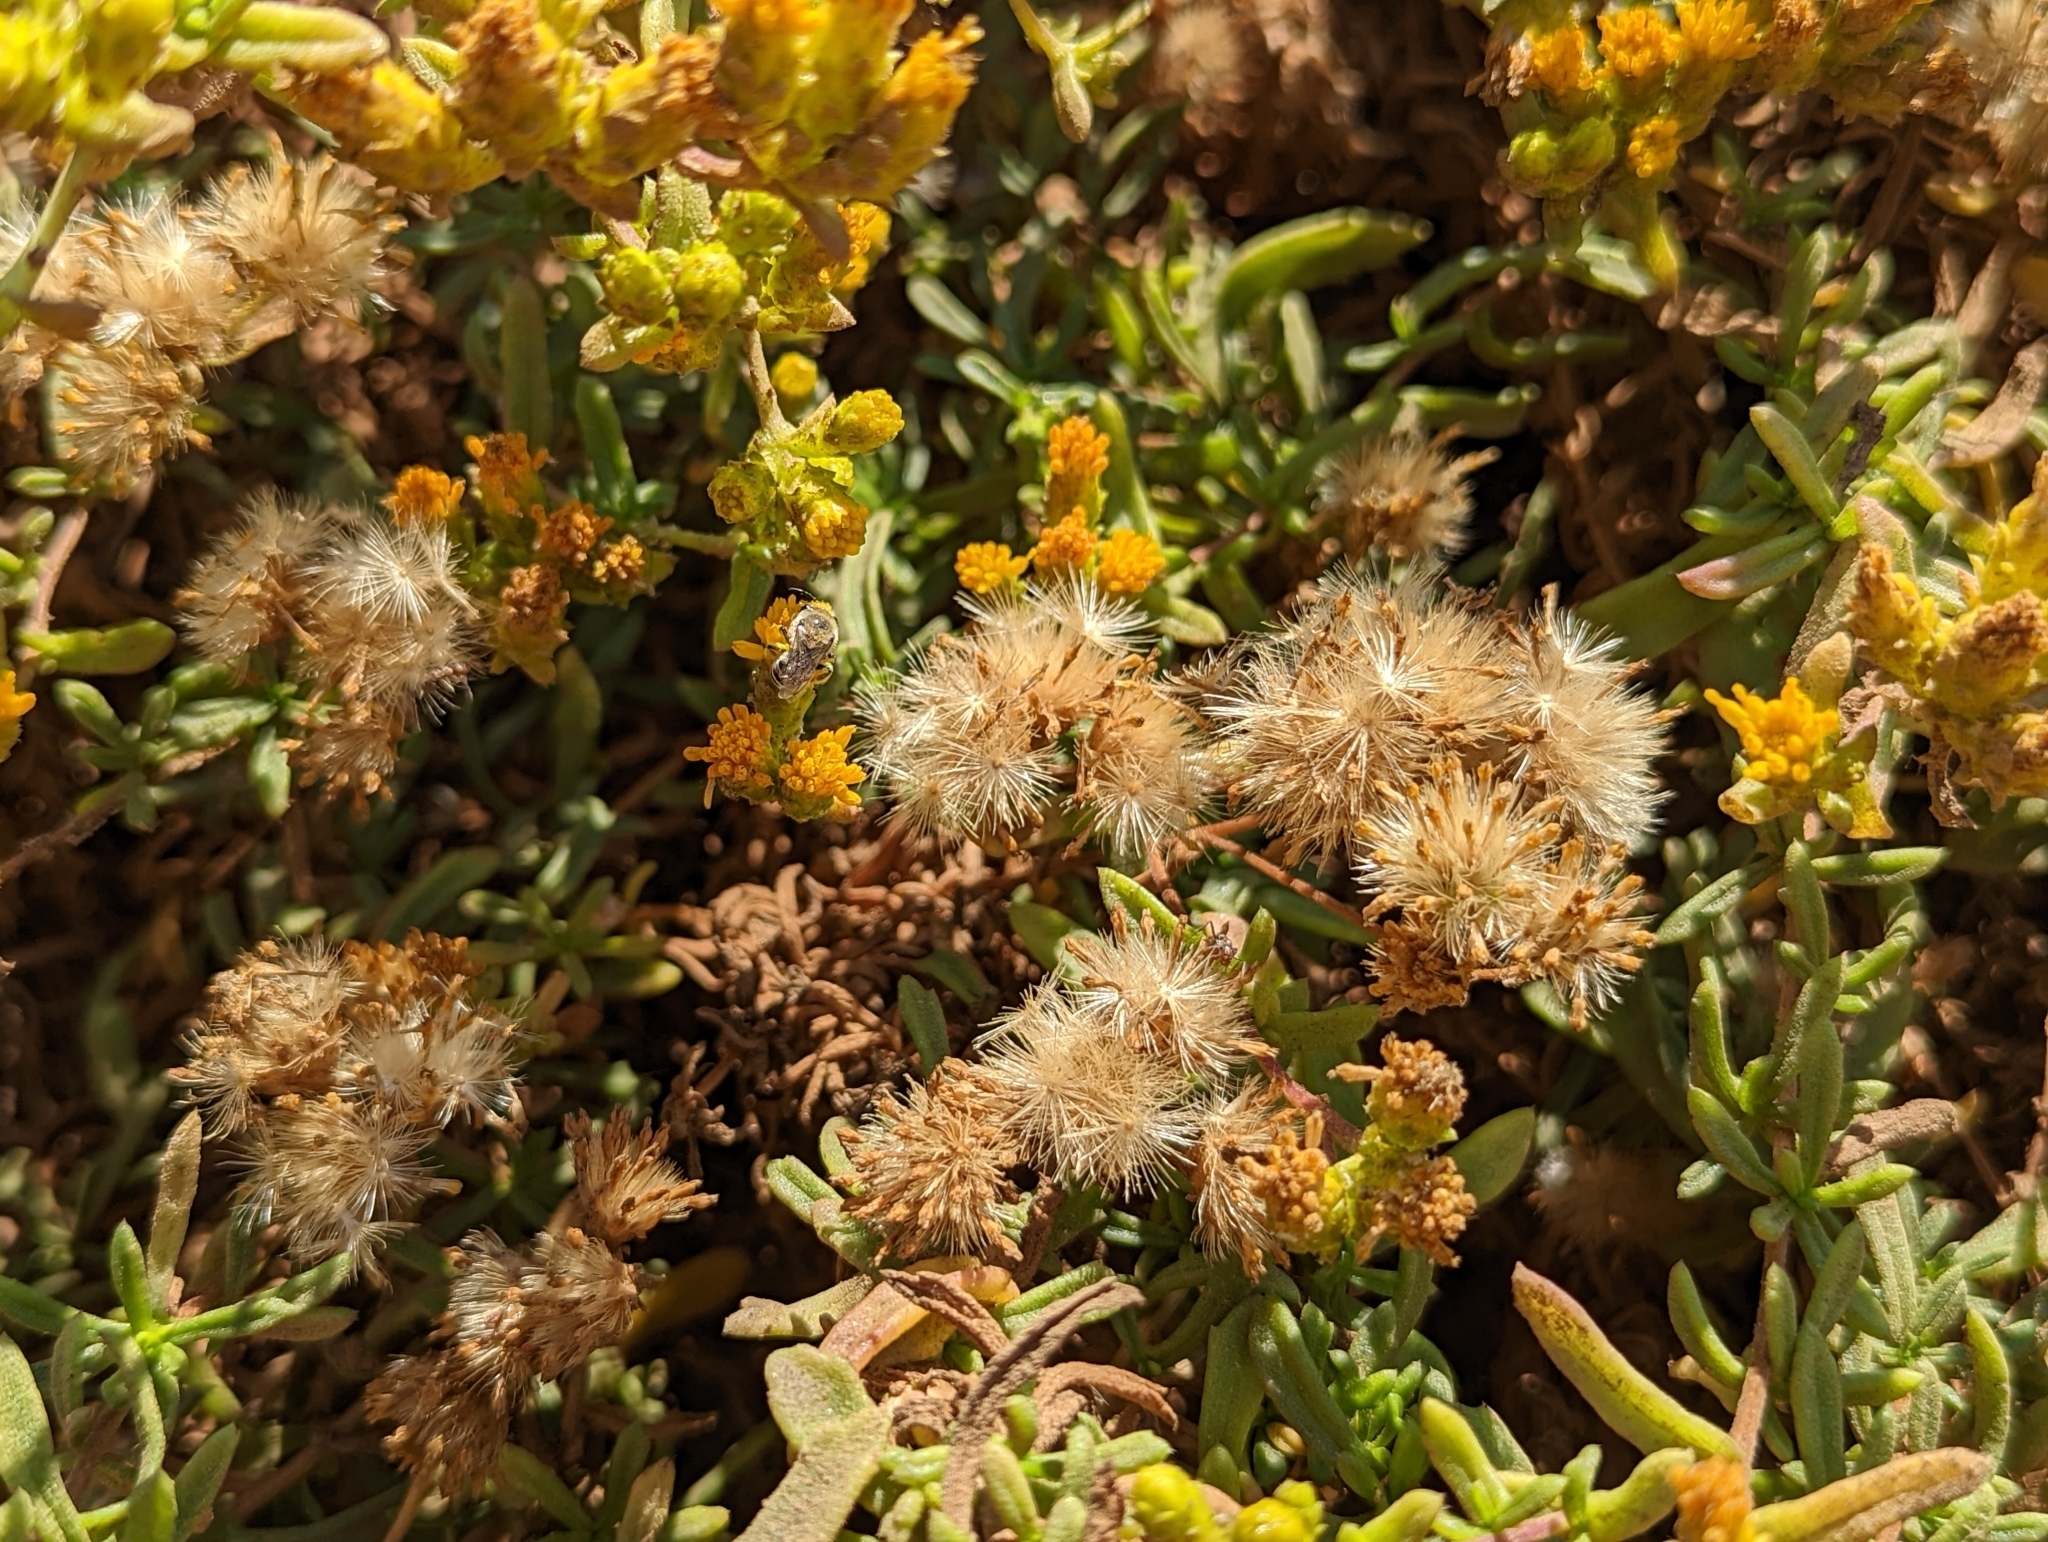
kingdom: Animalia
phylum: Arthropoda
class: Insecta
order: Hymenoptera
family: Colletidae
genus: Colletes
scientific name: Colletes
